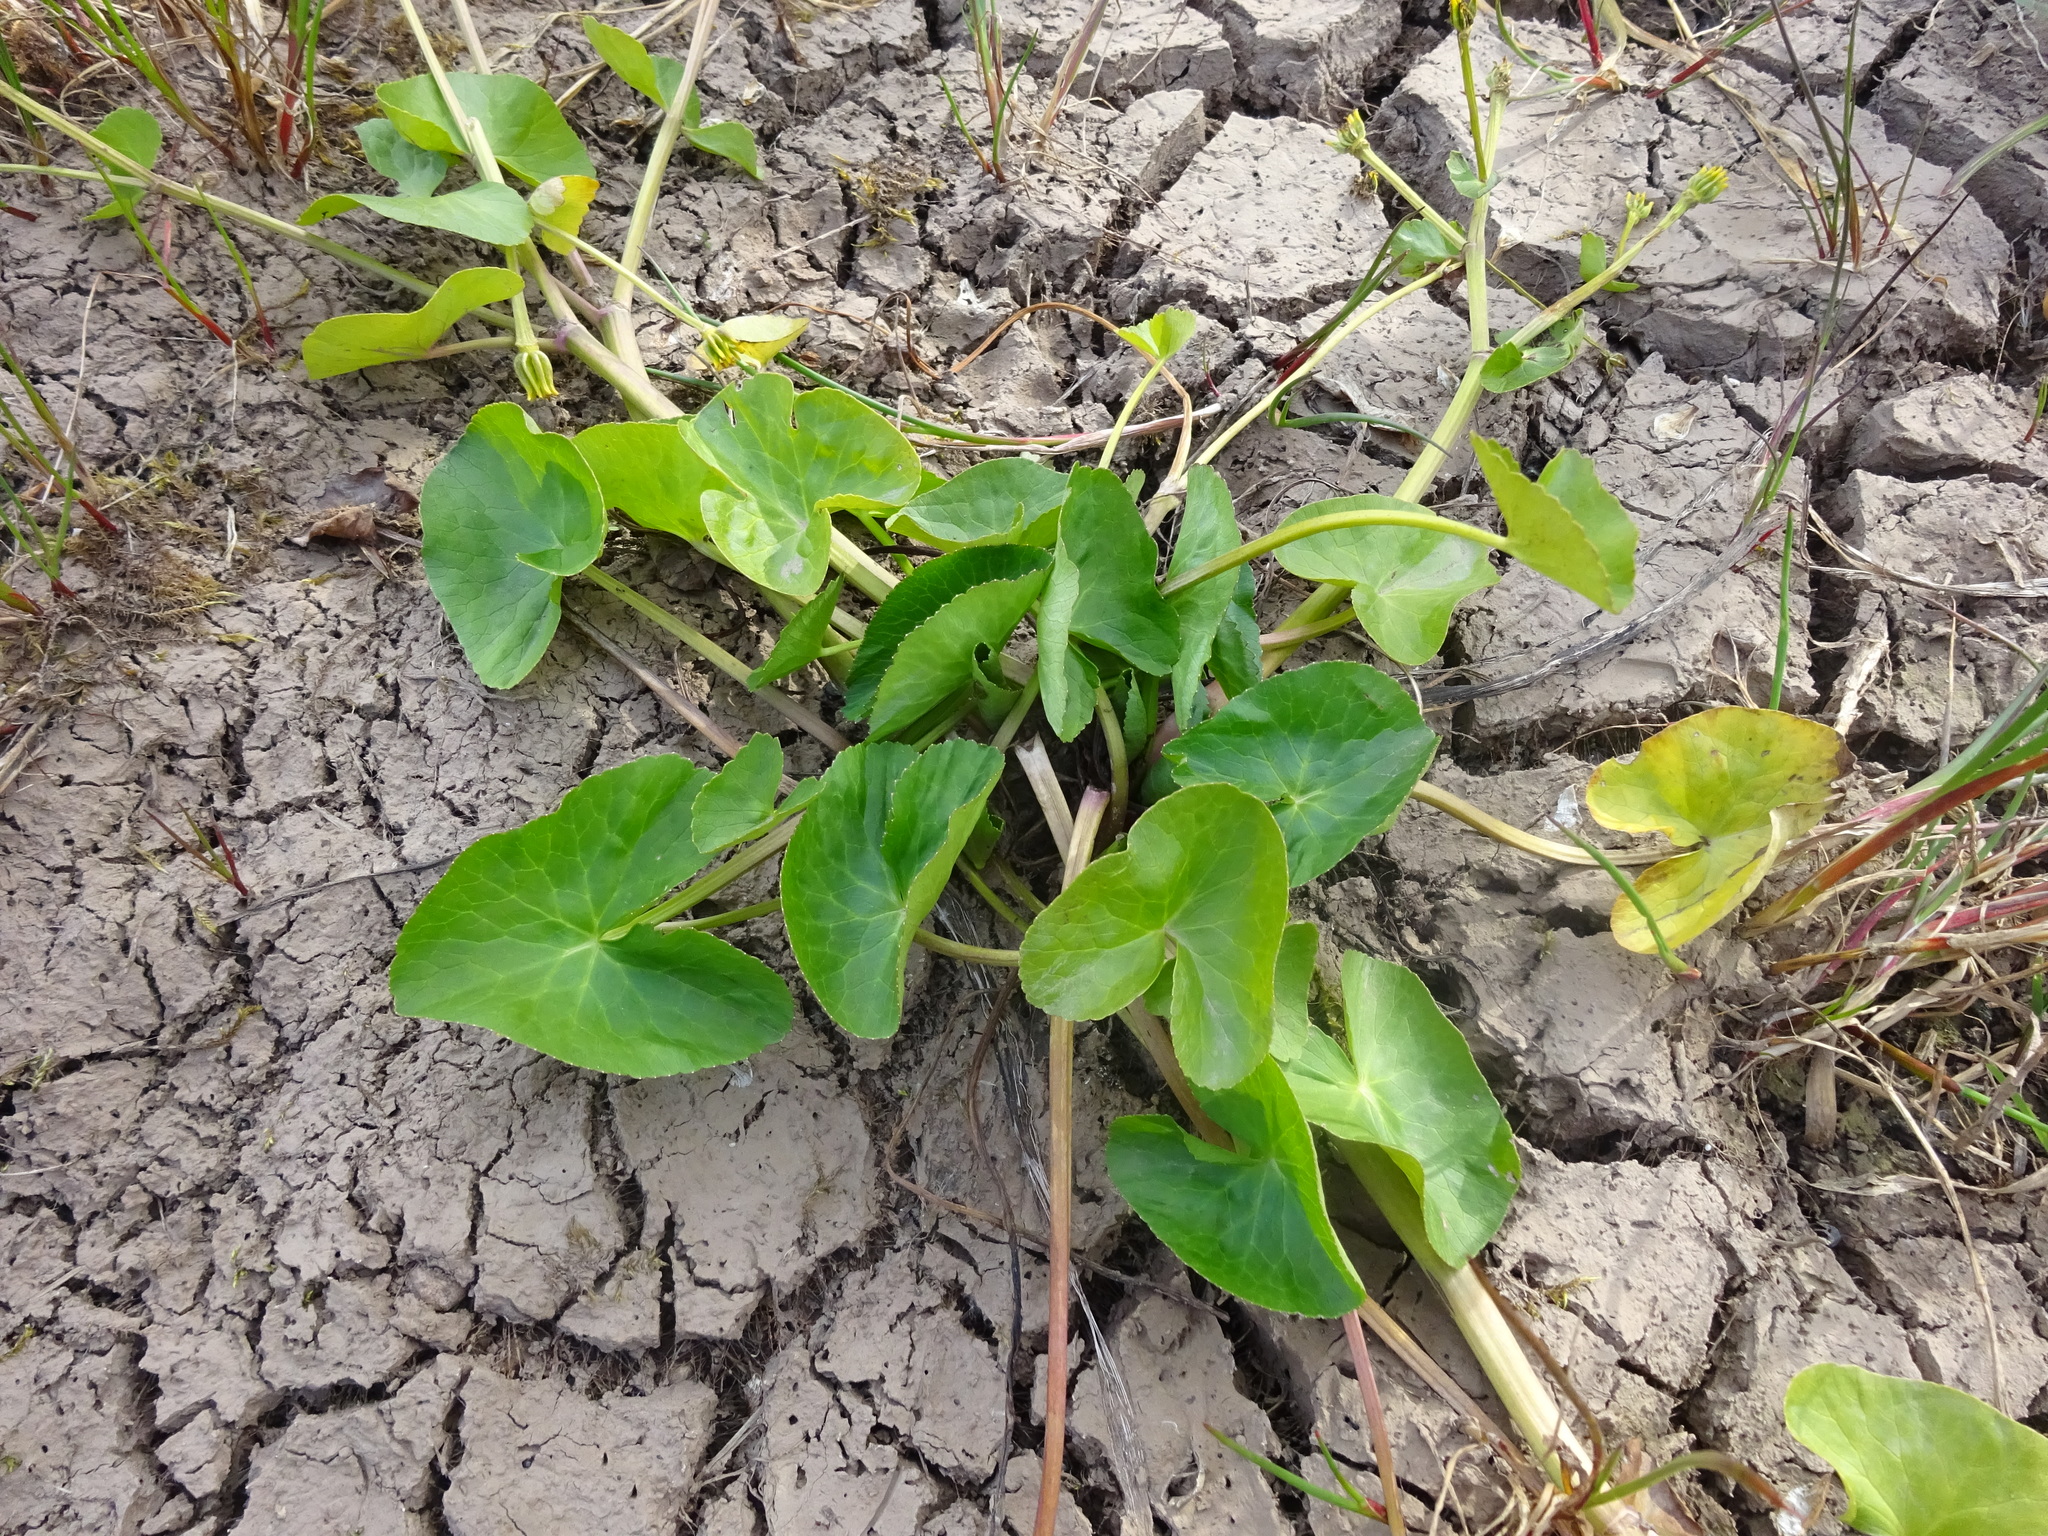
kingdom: Plantae
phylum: Tracheophyta
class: Magnoliopsida
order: Ranunculales
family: Ranunculaceae
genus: Caltha
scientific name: Caltha palustris
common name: Marsh marigold
